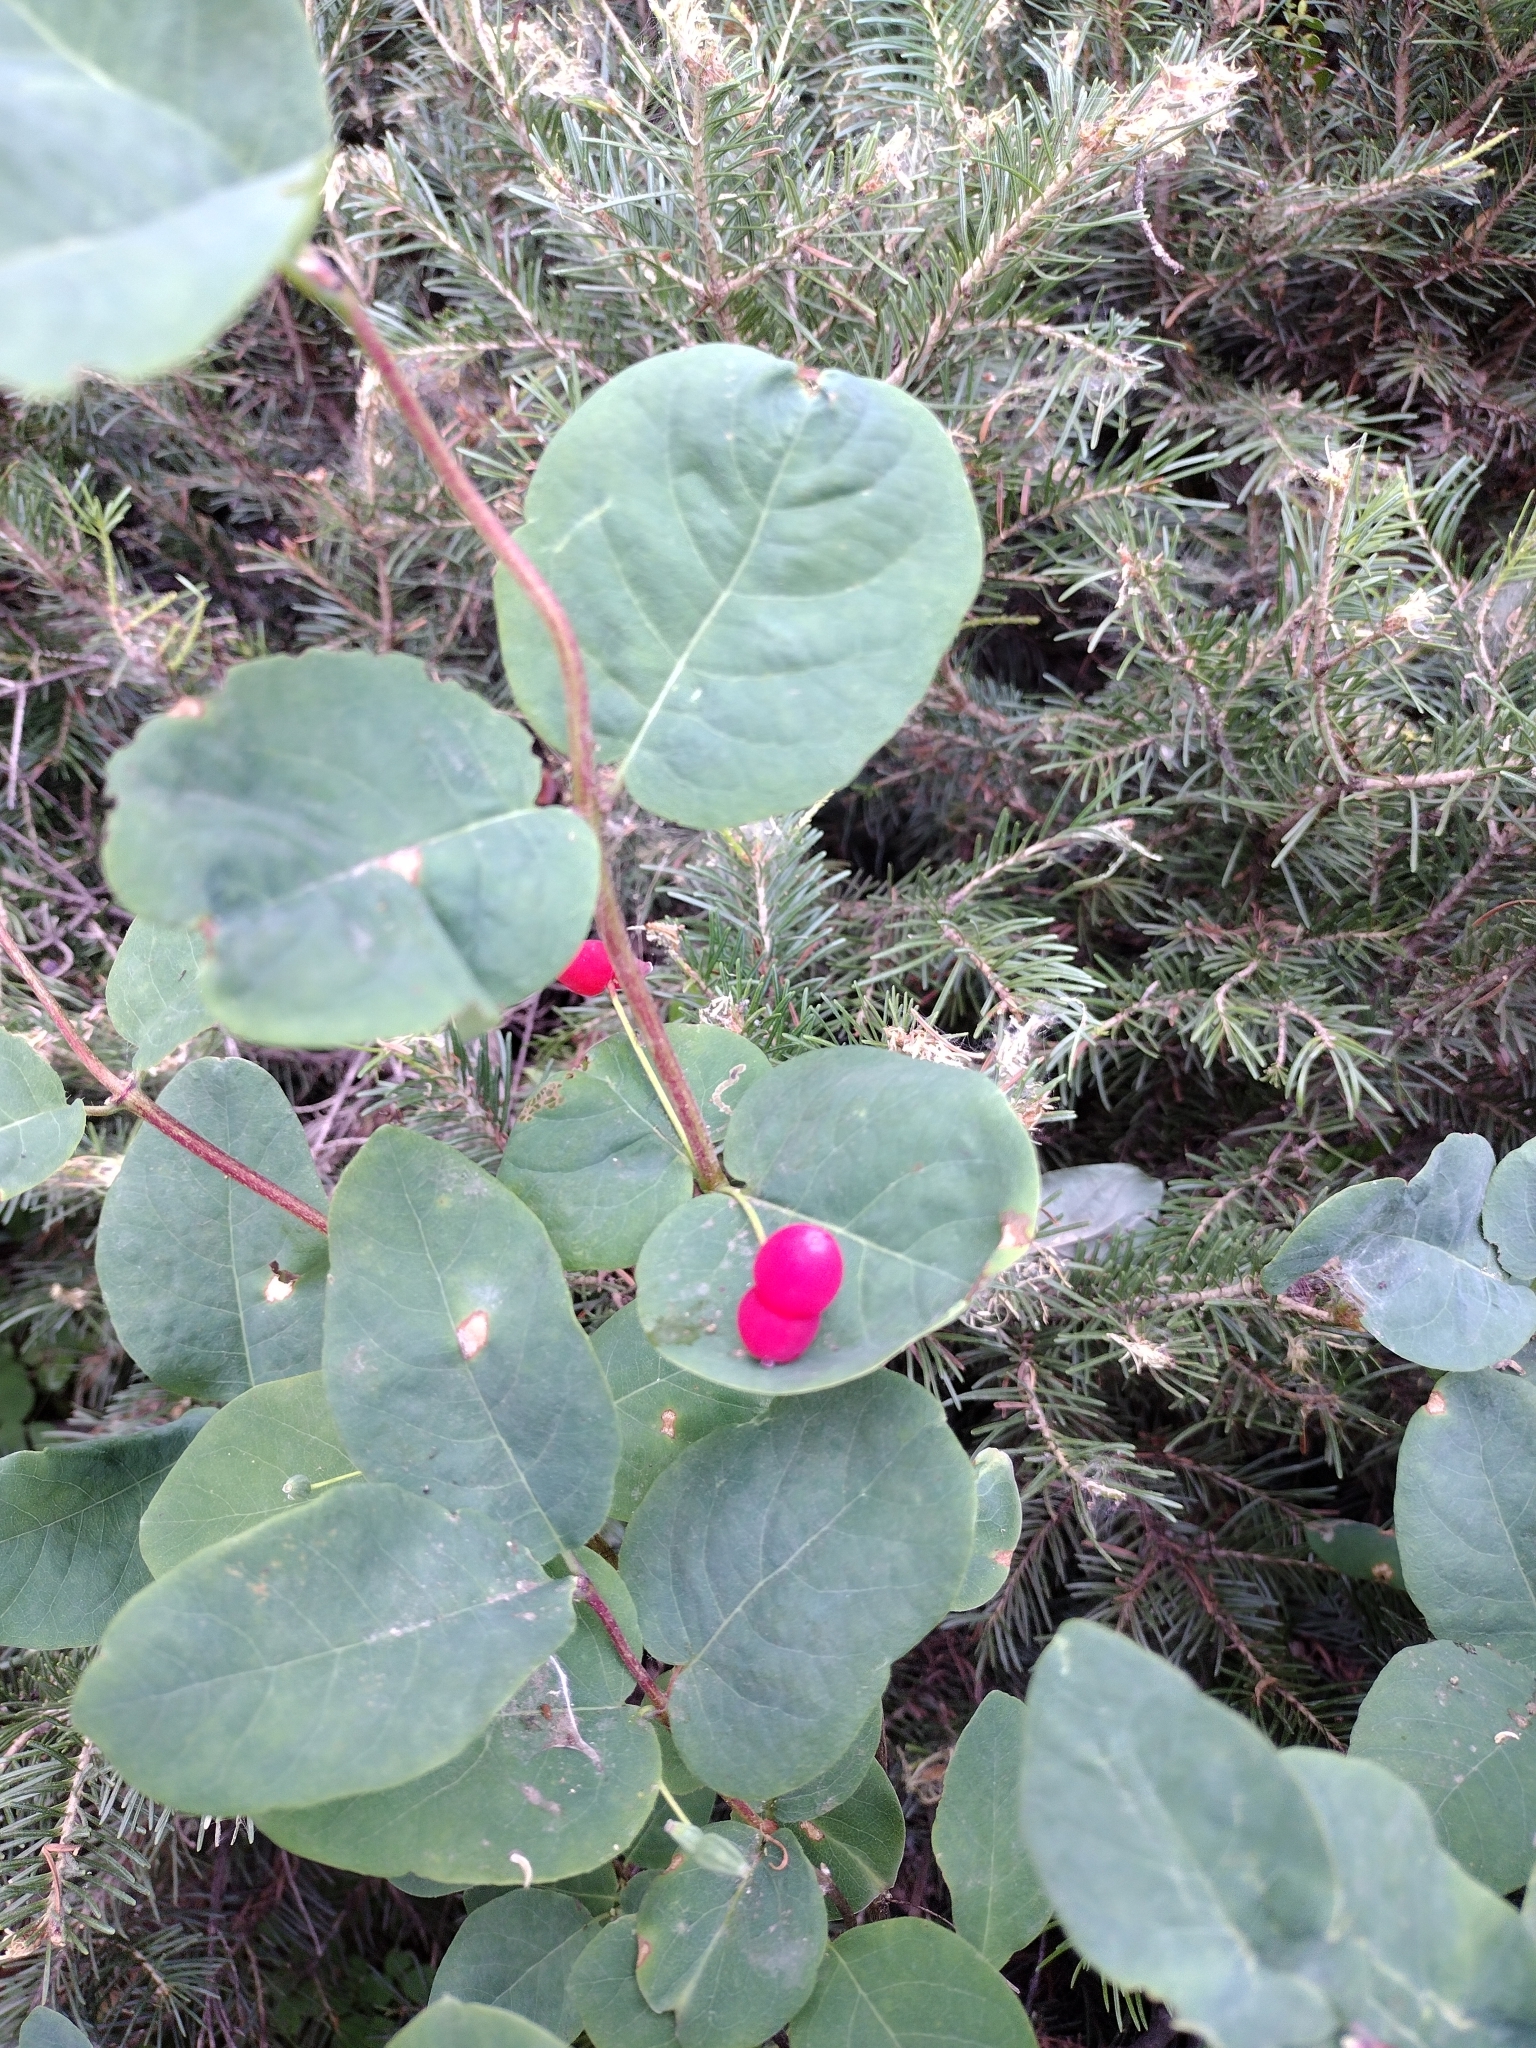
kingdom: Plantae
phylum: Tracheophyta
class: Magnoliopsida
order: Dipsacales
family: Caprifoliaceae
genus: Lonicera
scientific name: Lonicera utahensis
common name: Utah honeysuckle
